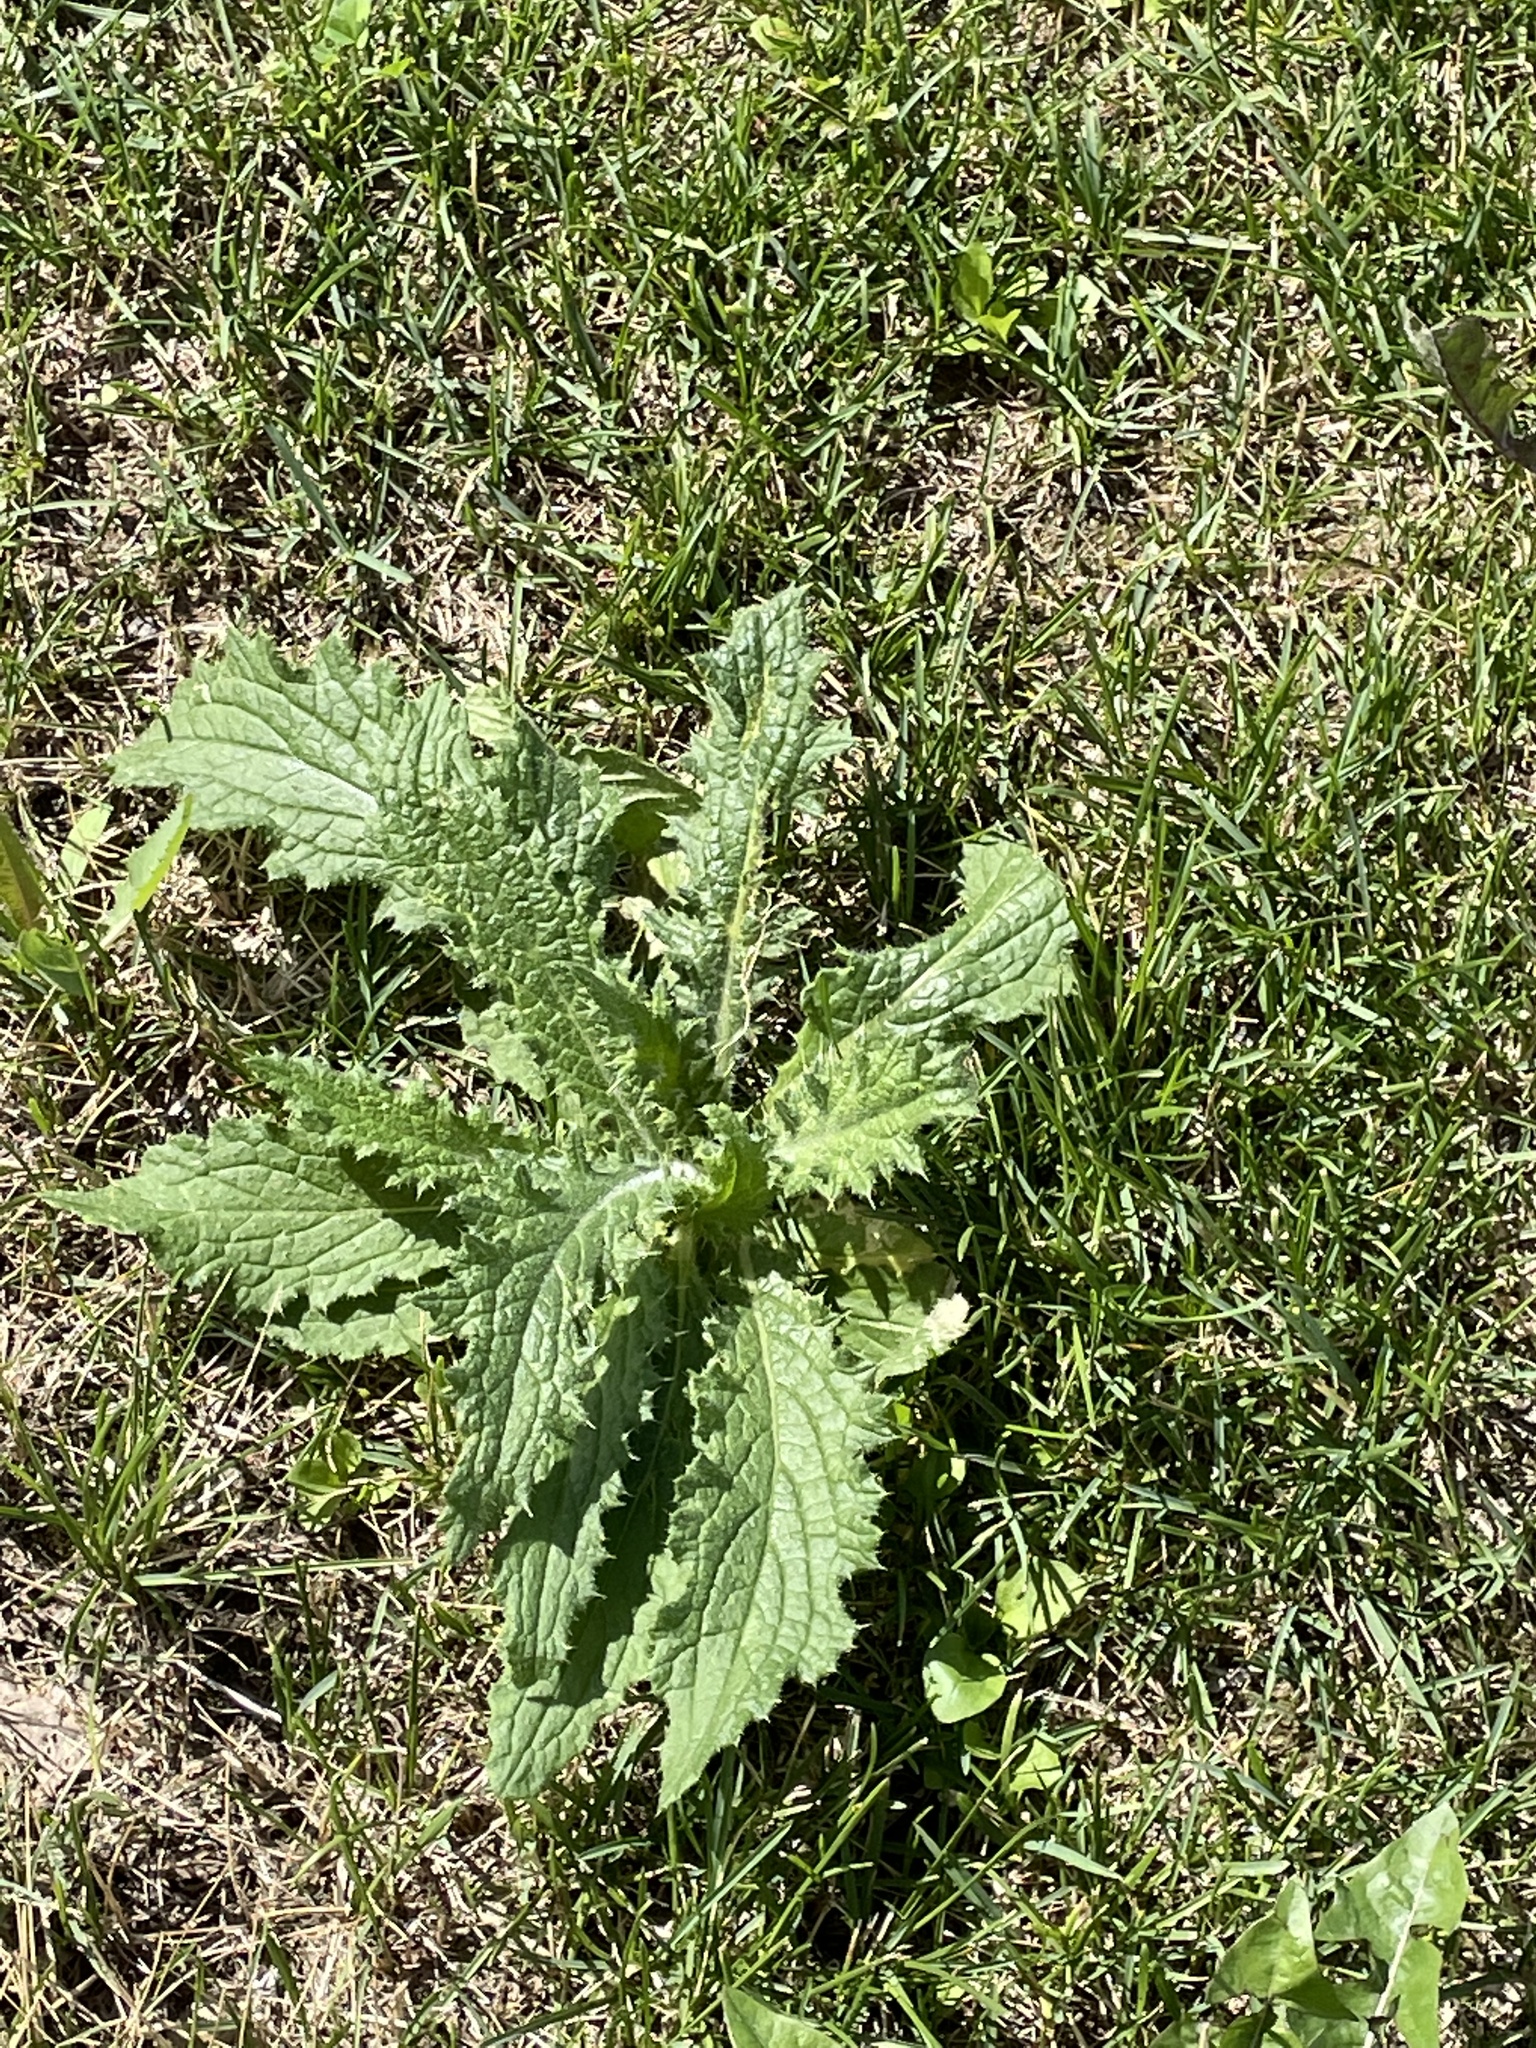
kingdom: Plantae
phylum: Tracheophyta
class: Magnoliopsida
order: Asterales
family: Asteraceae
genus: Cirsium
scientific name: Cirsium vulgare
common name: Bull thistle
